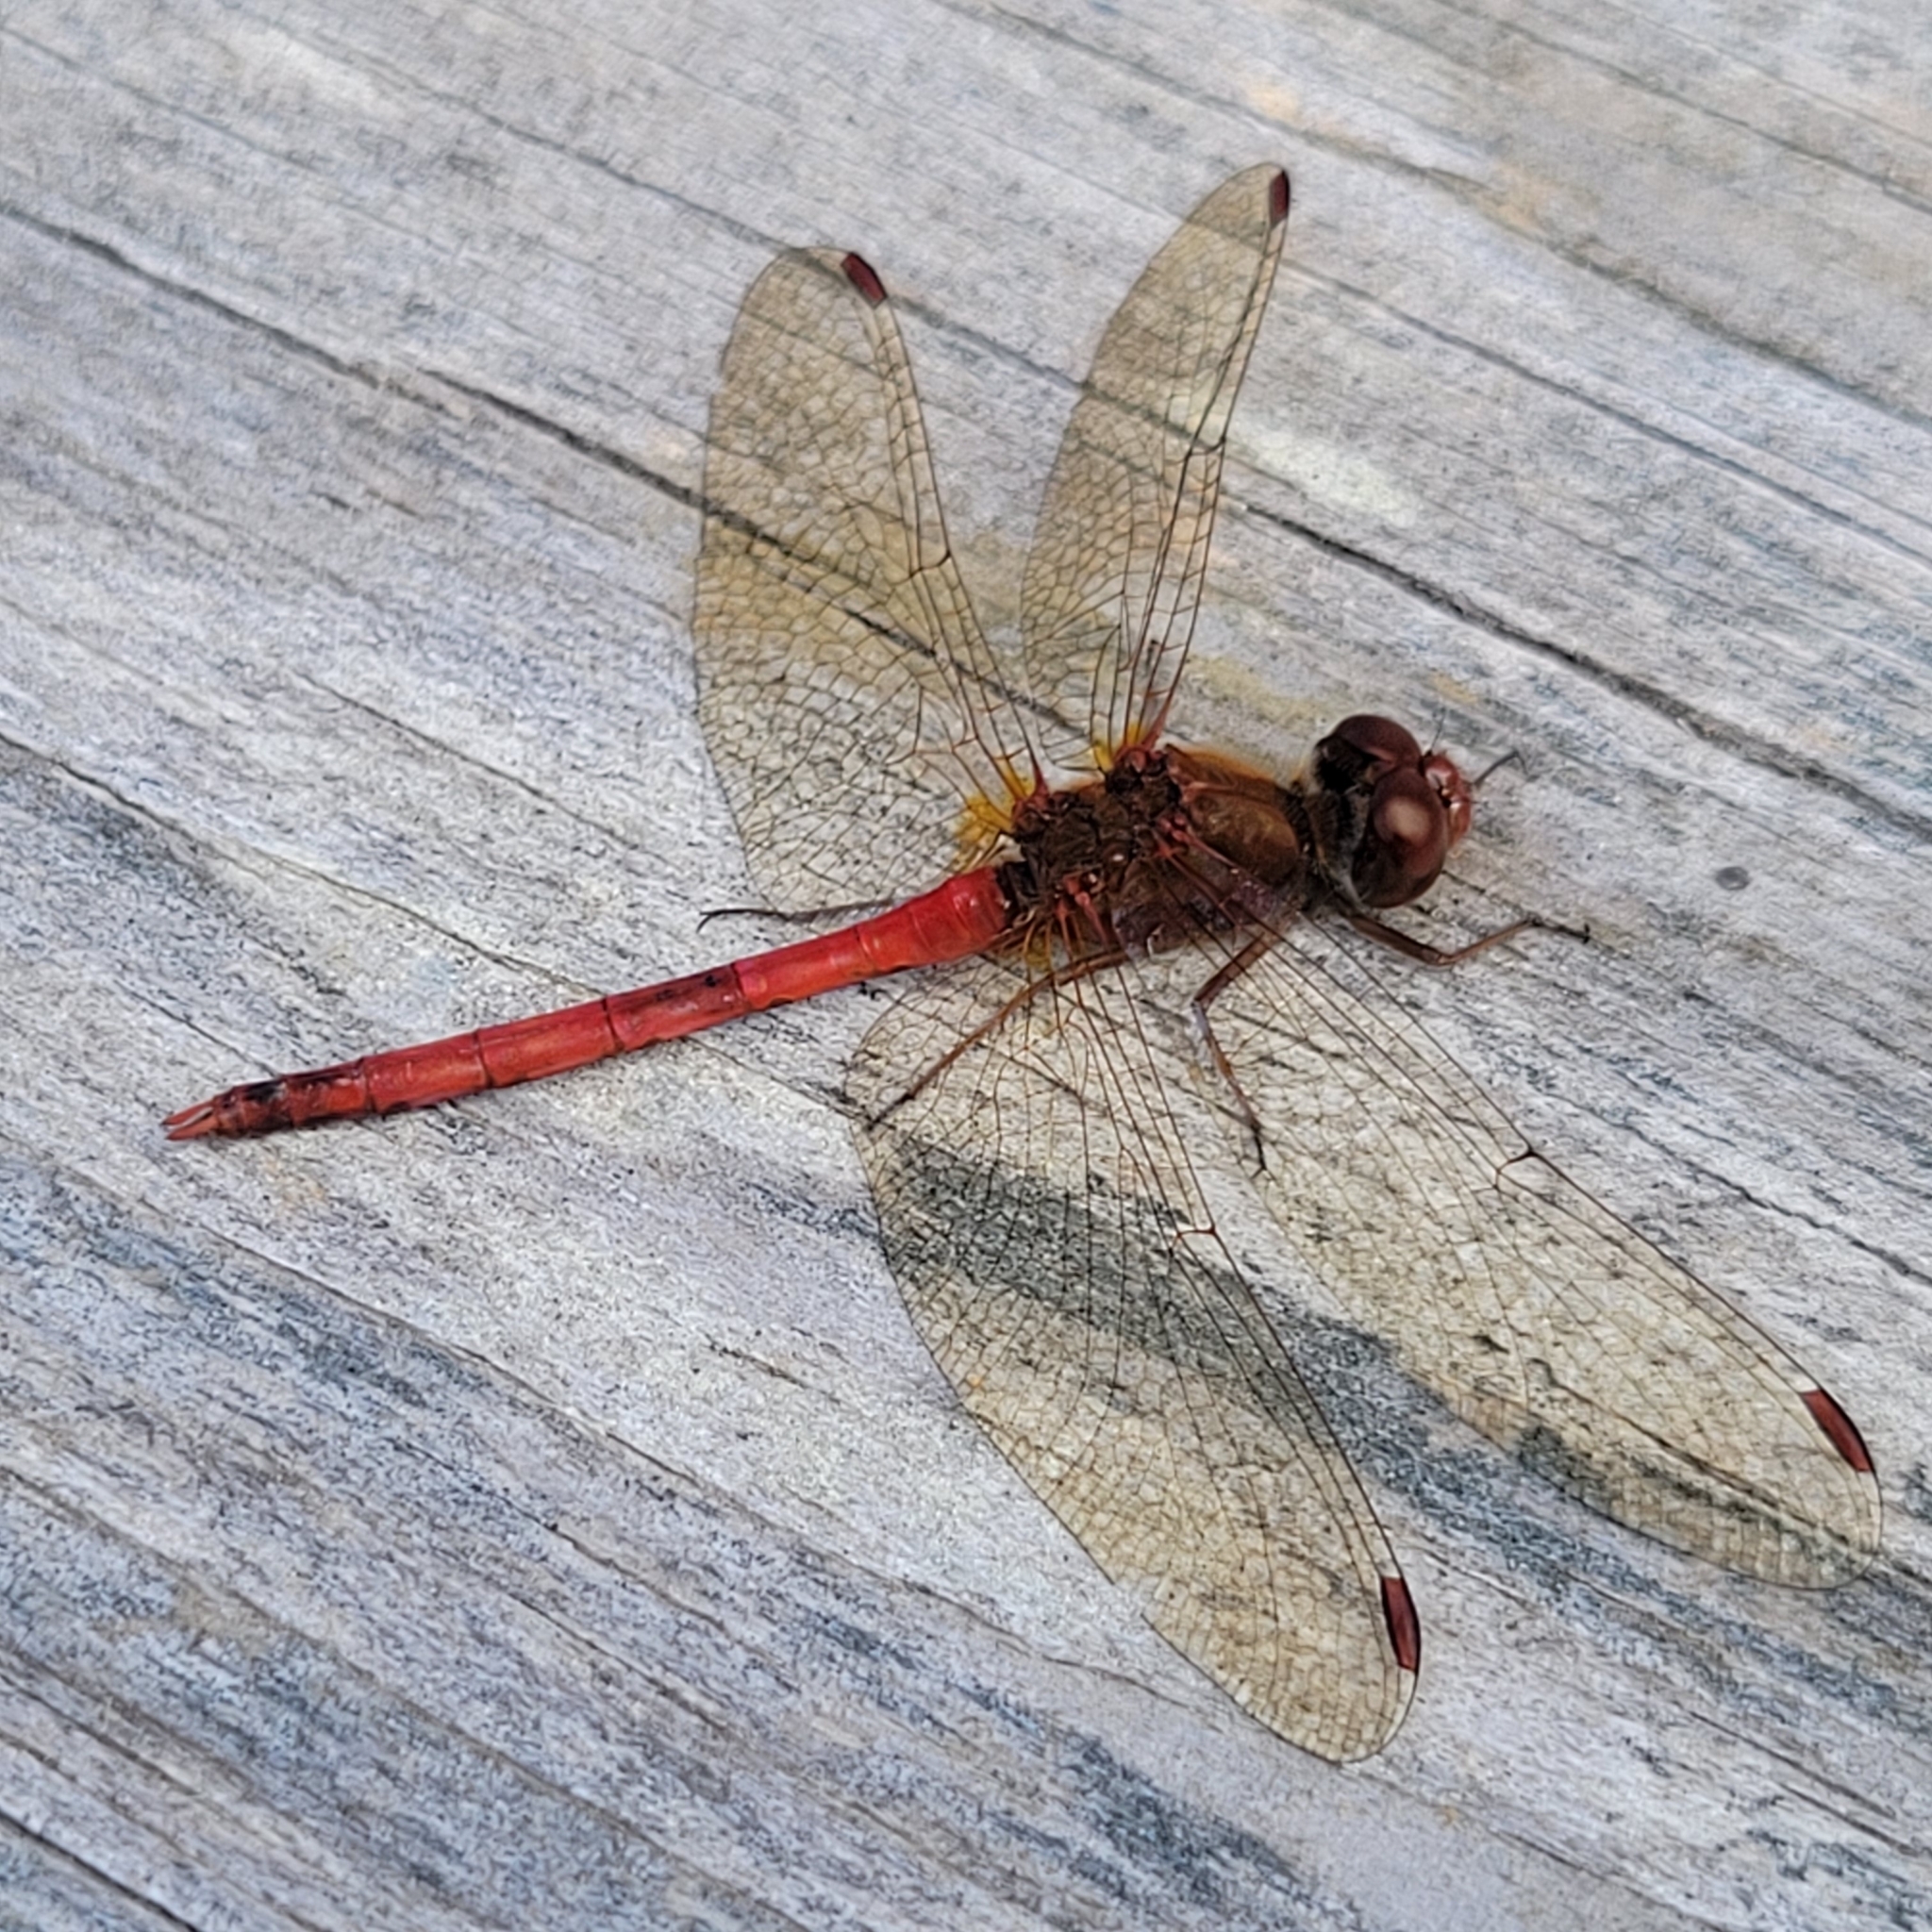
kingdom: Animalia
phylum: Arthropoda
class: Insecta
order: Odonata
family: Libellulidae
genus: Sympetrum
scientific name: Sympetrum vicinum
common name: Autumn meadowhawk
